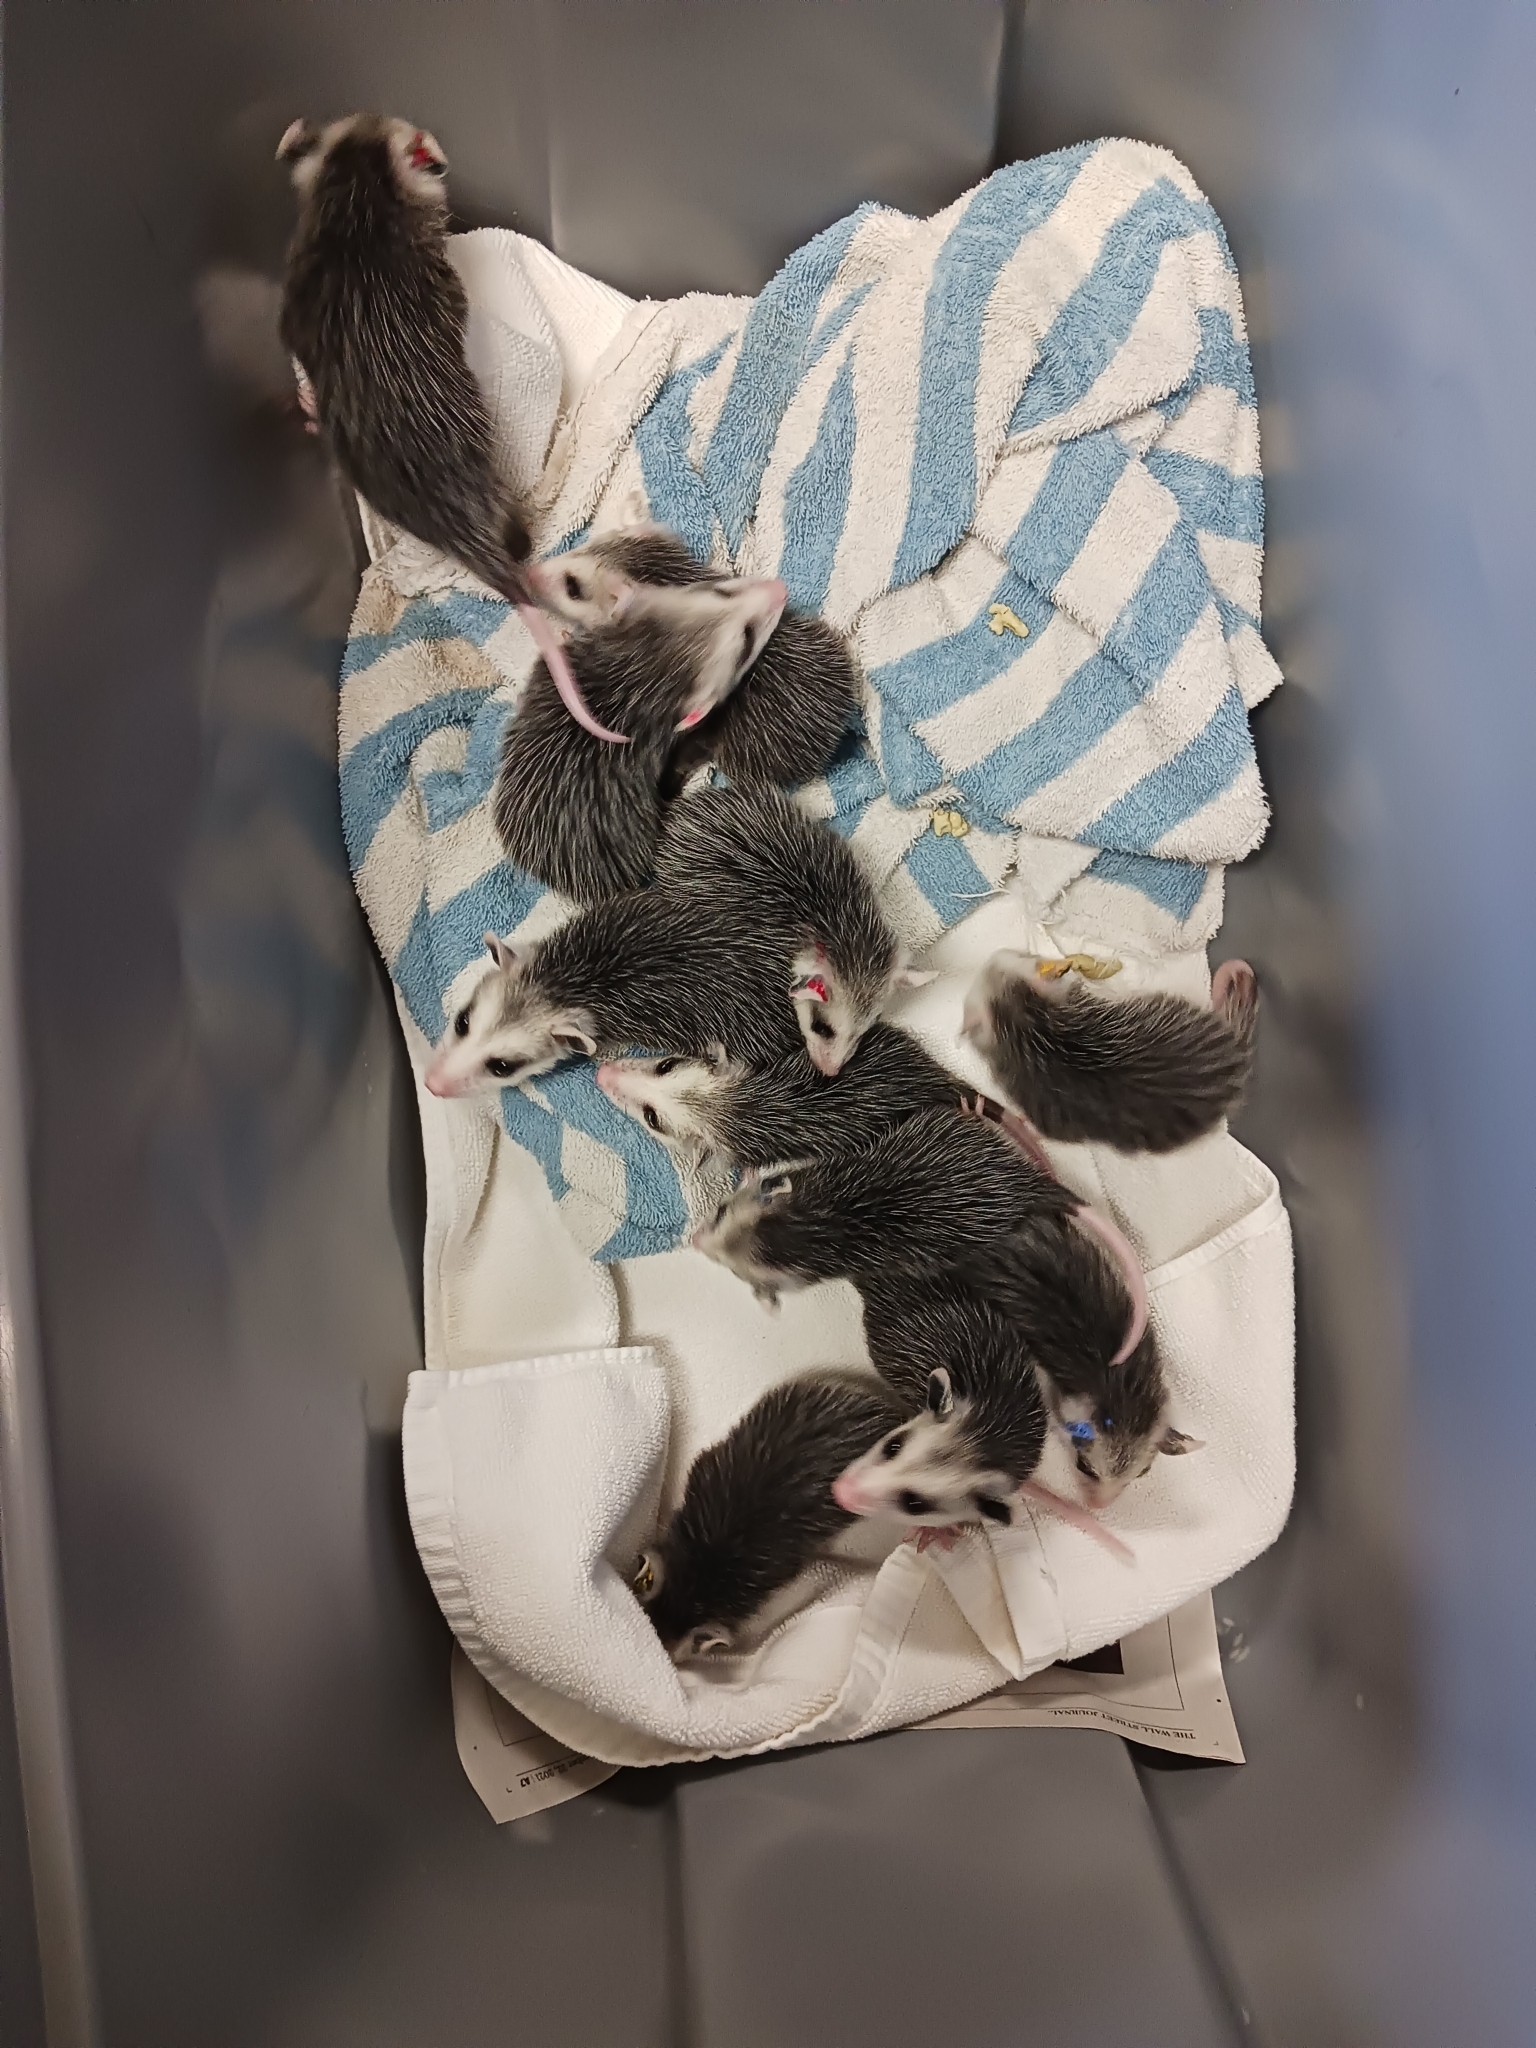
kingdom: Animalia
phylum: Chordata
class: Mammalia
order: Didelphimorphia
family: Didelphidae
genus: Didelphis
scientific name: Didelphis virginiana
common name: Virginia opossum
